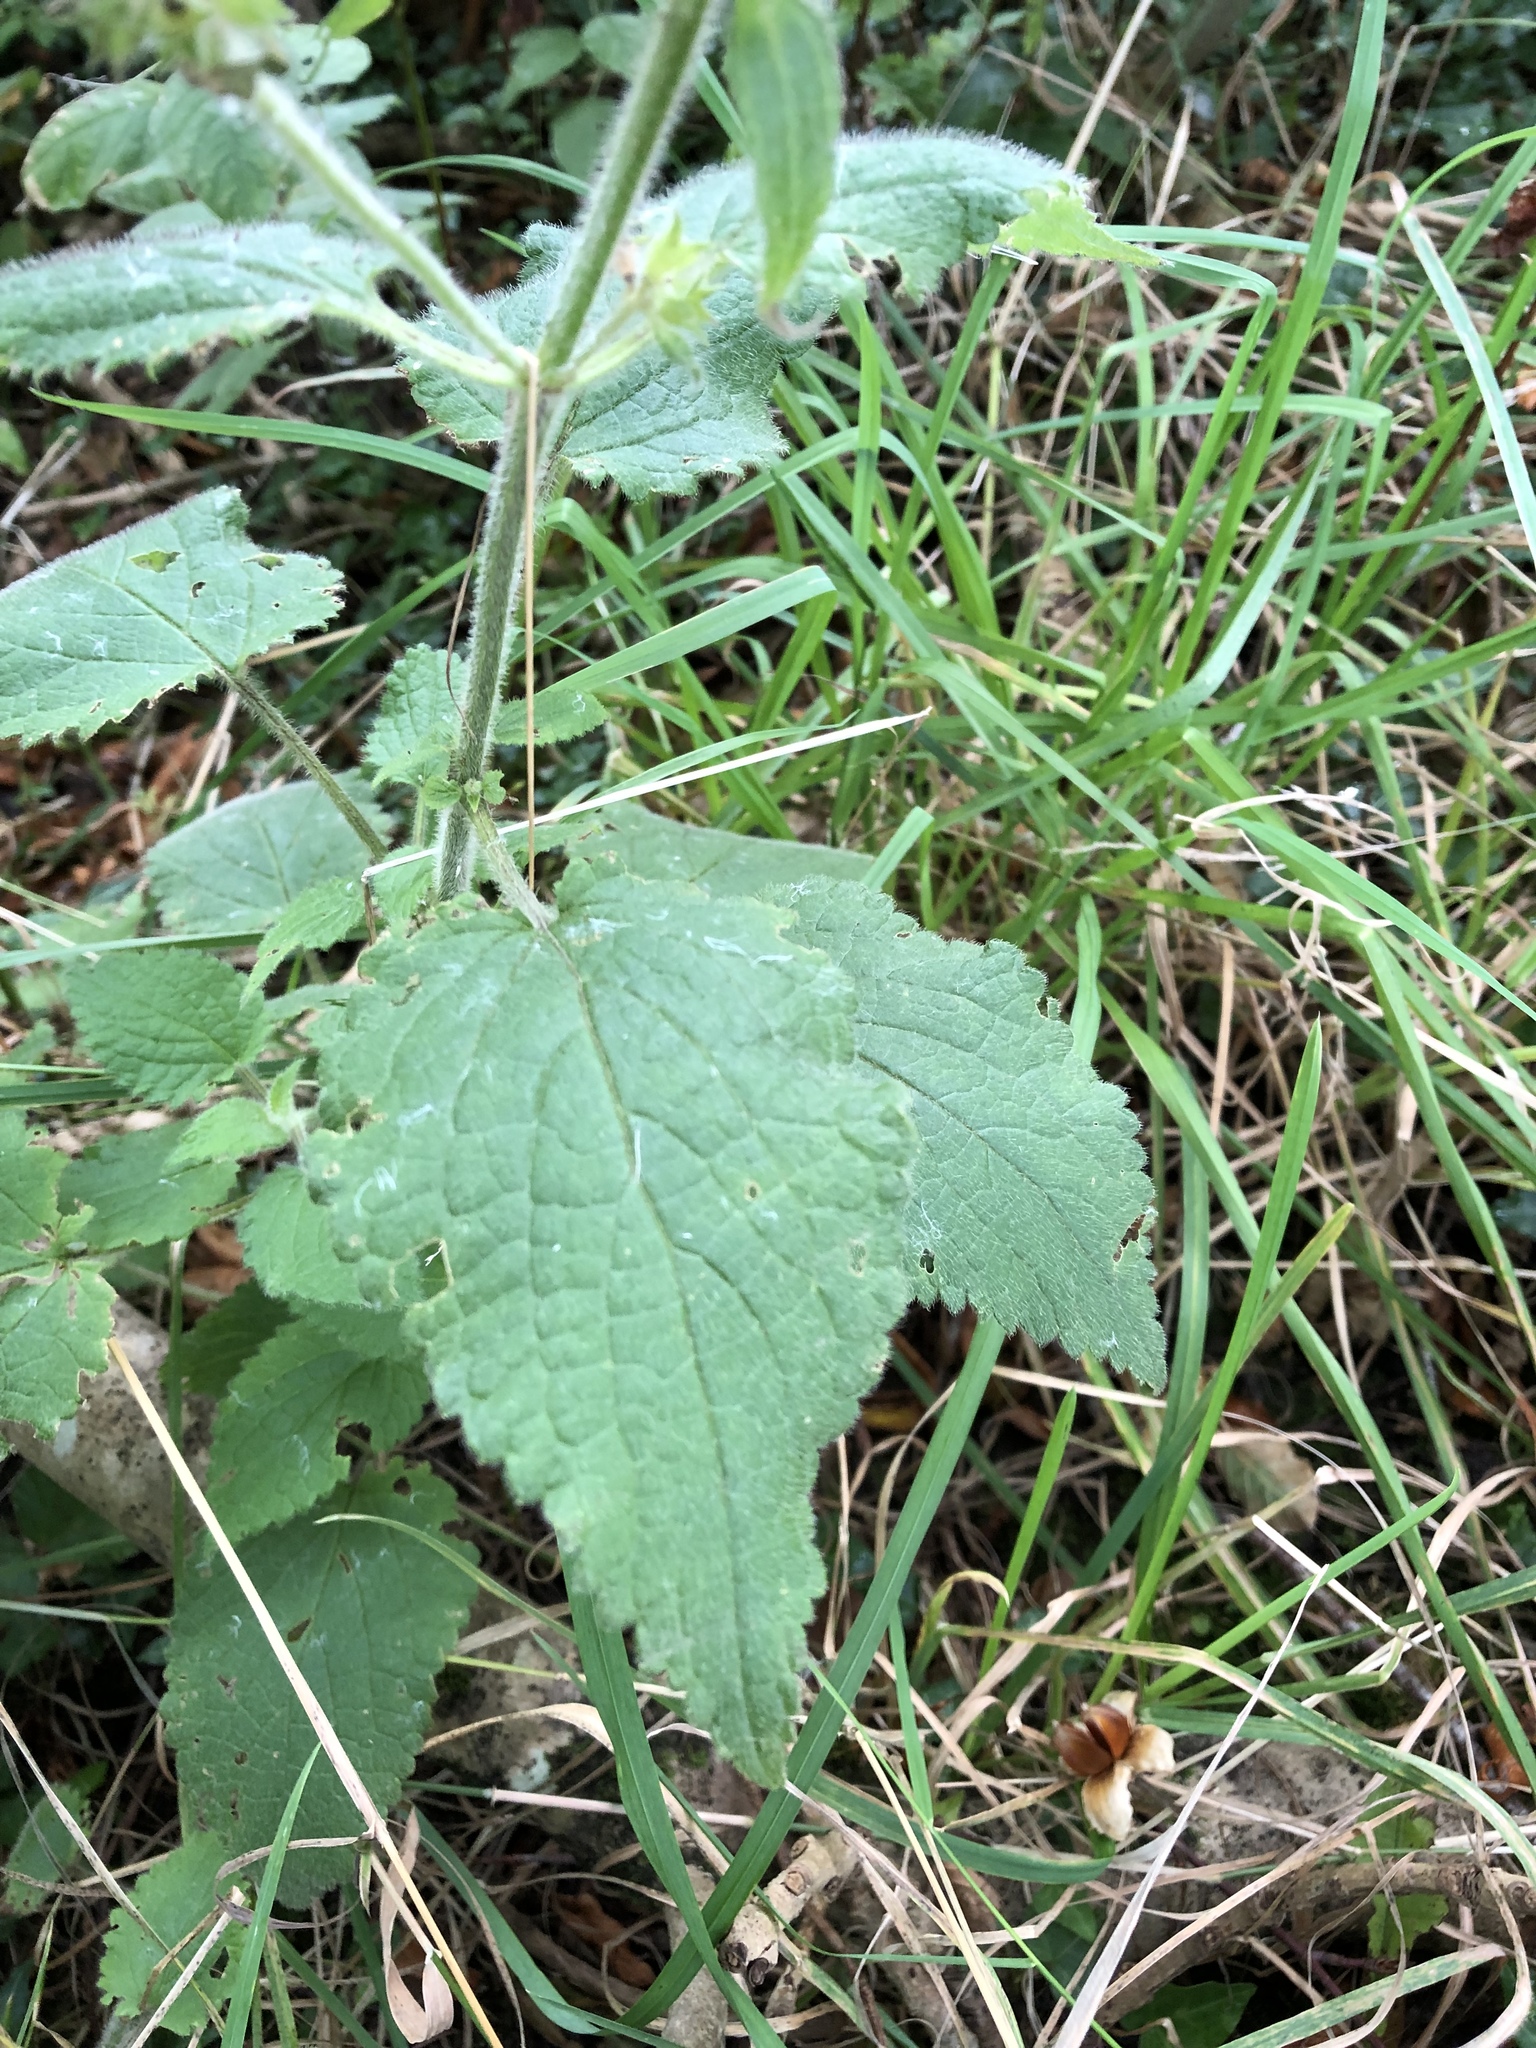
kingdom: Plantae
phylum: Tracheophyta
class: Magnoliopsida
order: Lamiales
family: Lamiaceae
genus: Stachys
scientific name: Stachys sylvatica
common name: Hedge woundwort
